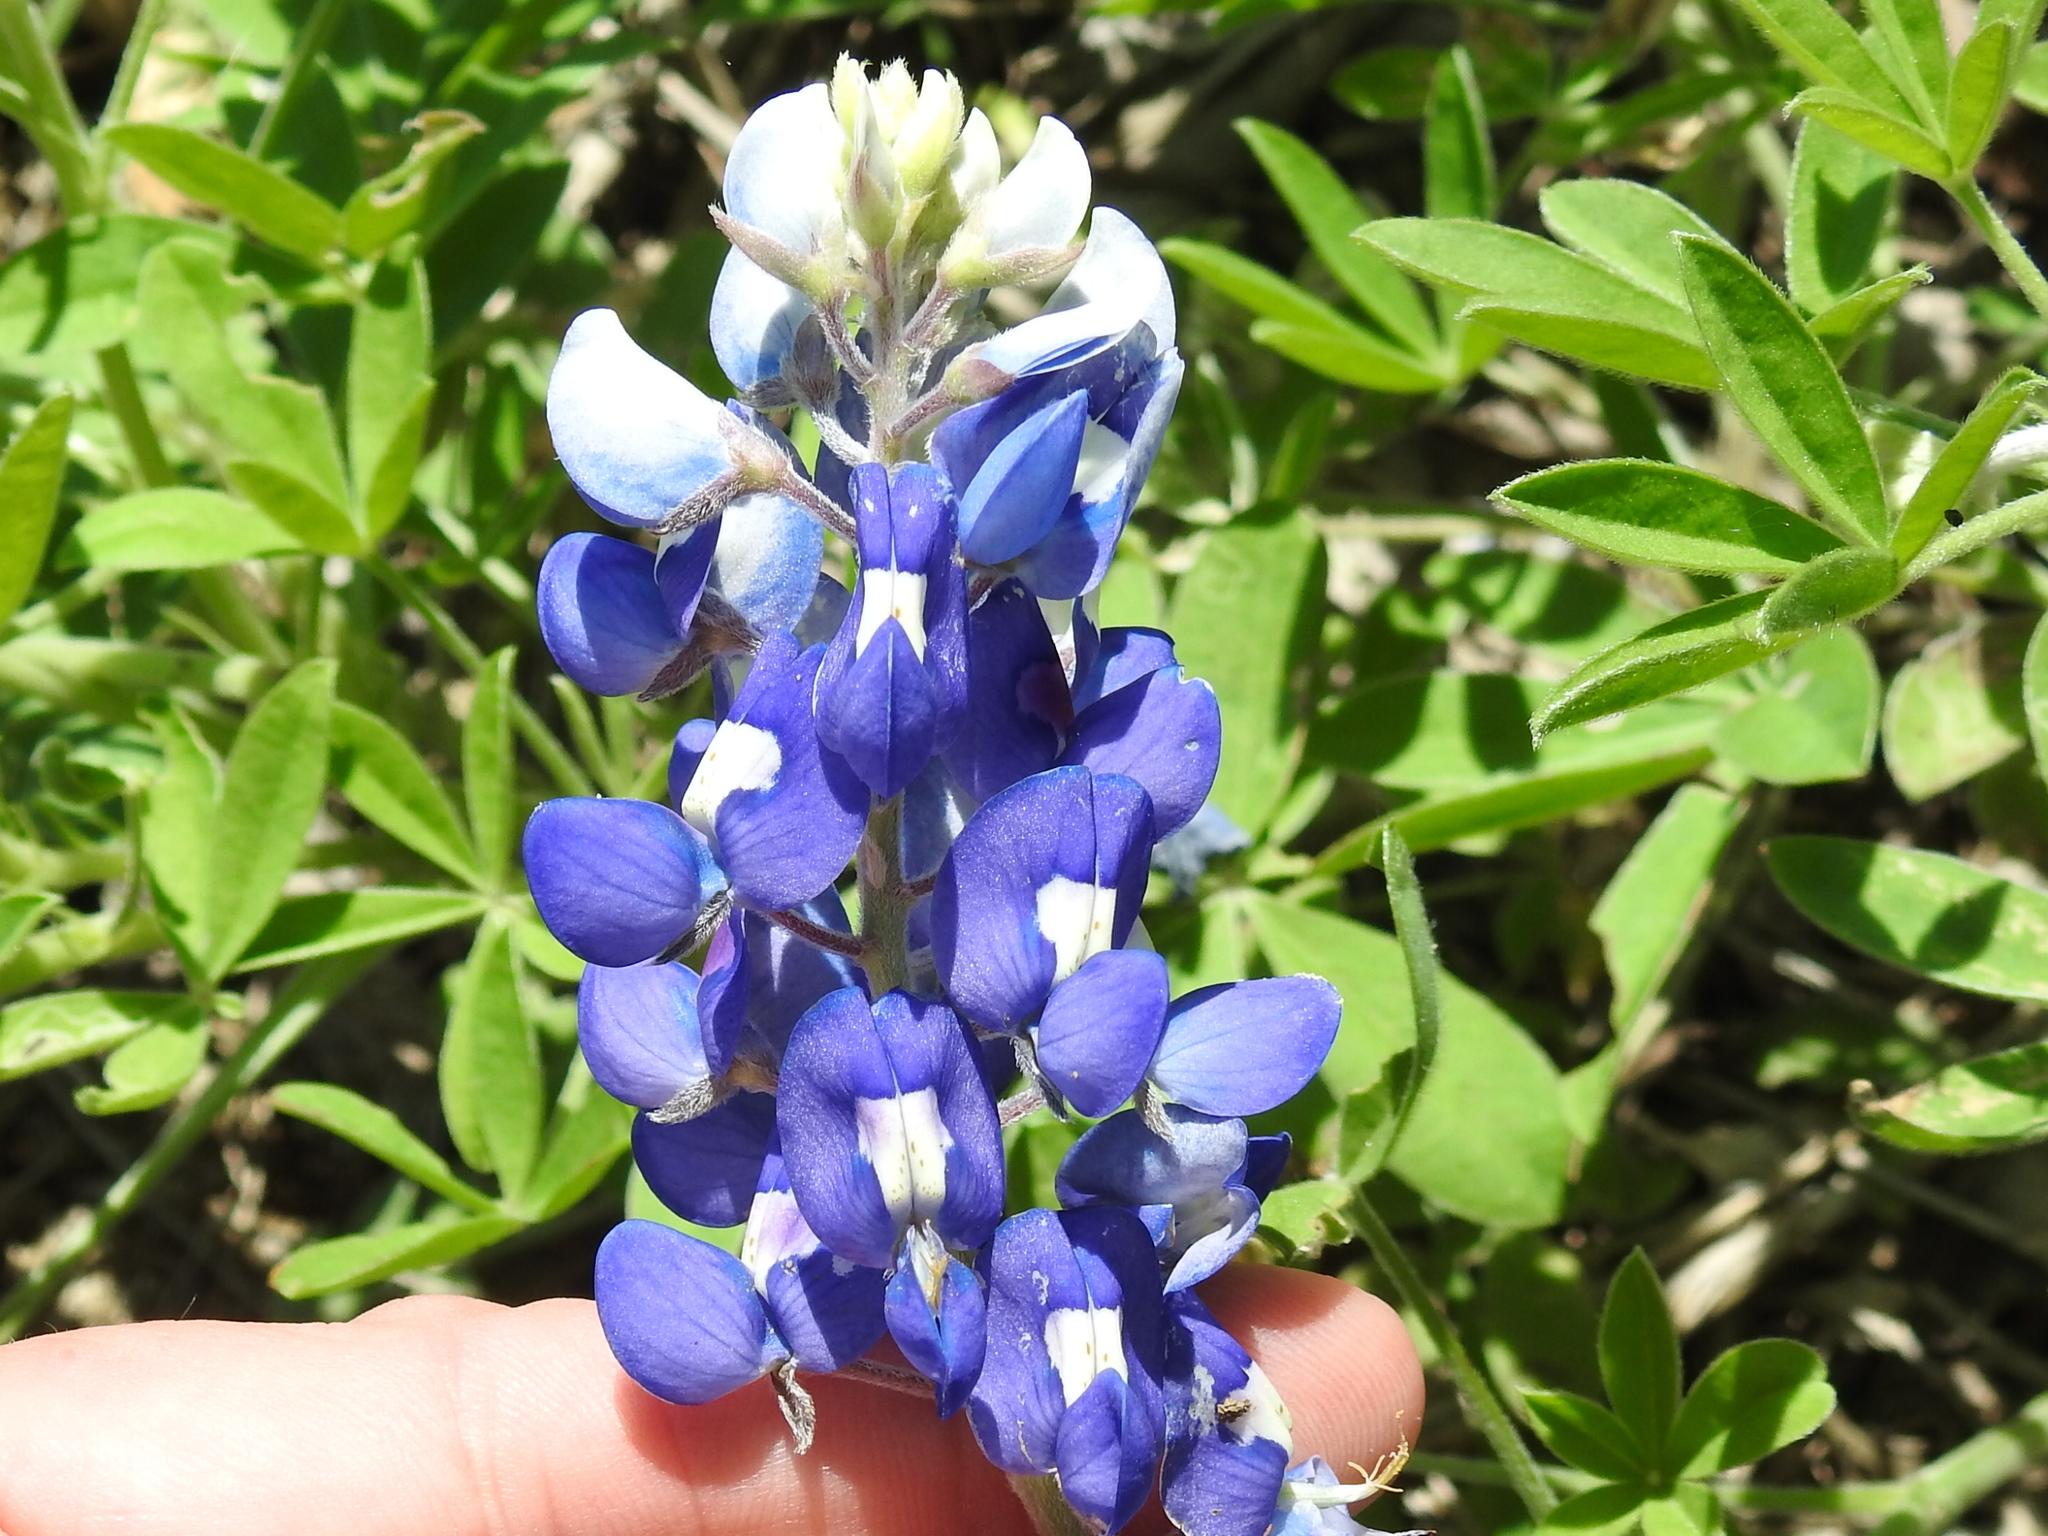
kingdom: Plantae
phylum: Tracheophyta
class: Magnoliopsida
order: Fabales
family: Fabaceae
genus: Lupinus
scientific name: Lupinus texensis
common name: Texas bluebonnet
